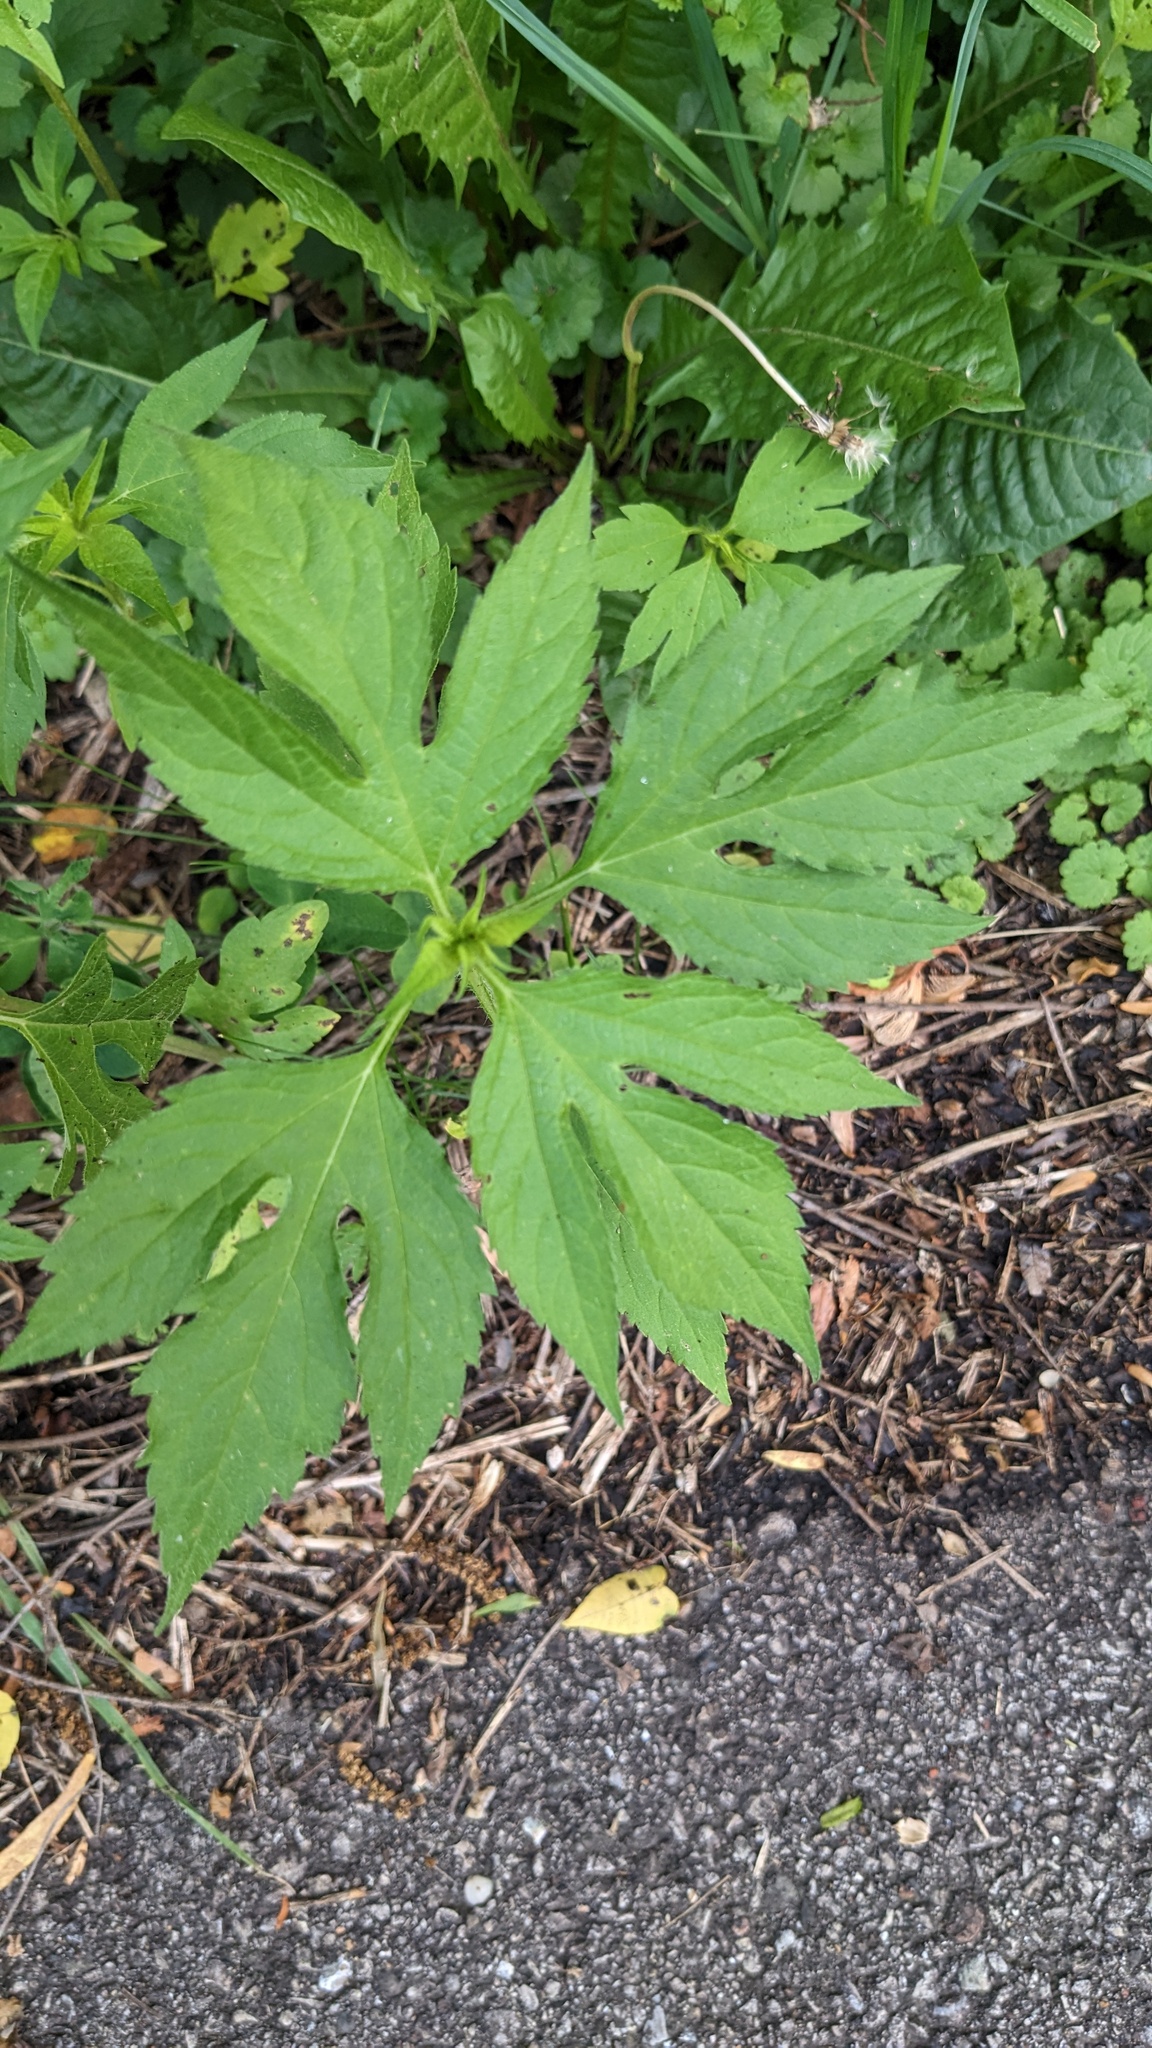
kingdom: Plantae
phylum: Tracheophyta
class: Magnoliopsida
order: Asterales
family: Asteraceae
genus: Ambrosia
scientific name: Ambrosia trifida
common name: Giant ragweed
